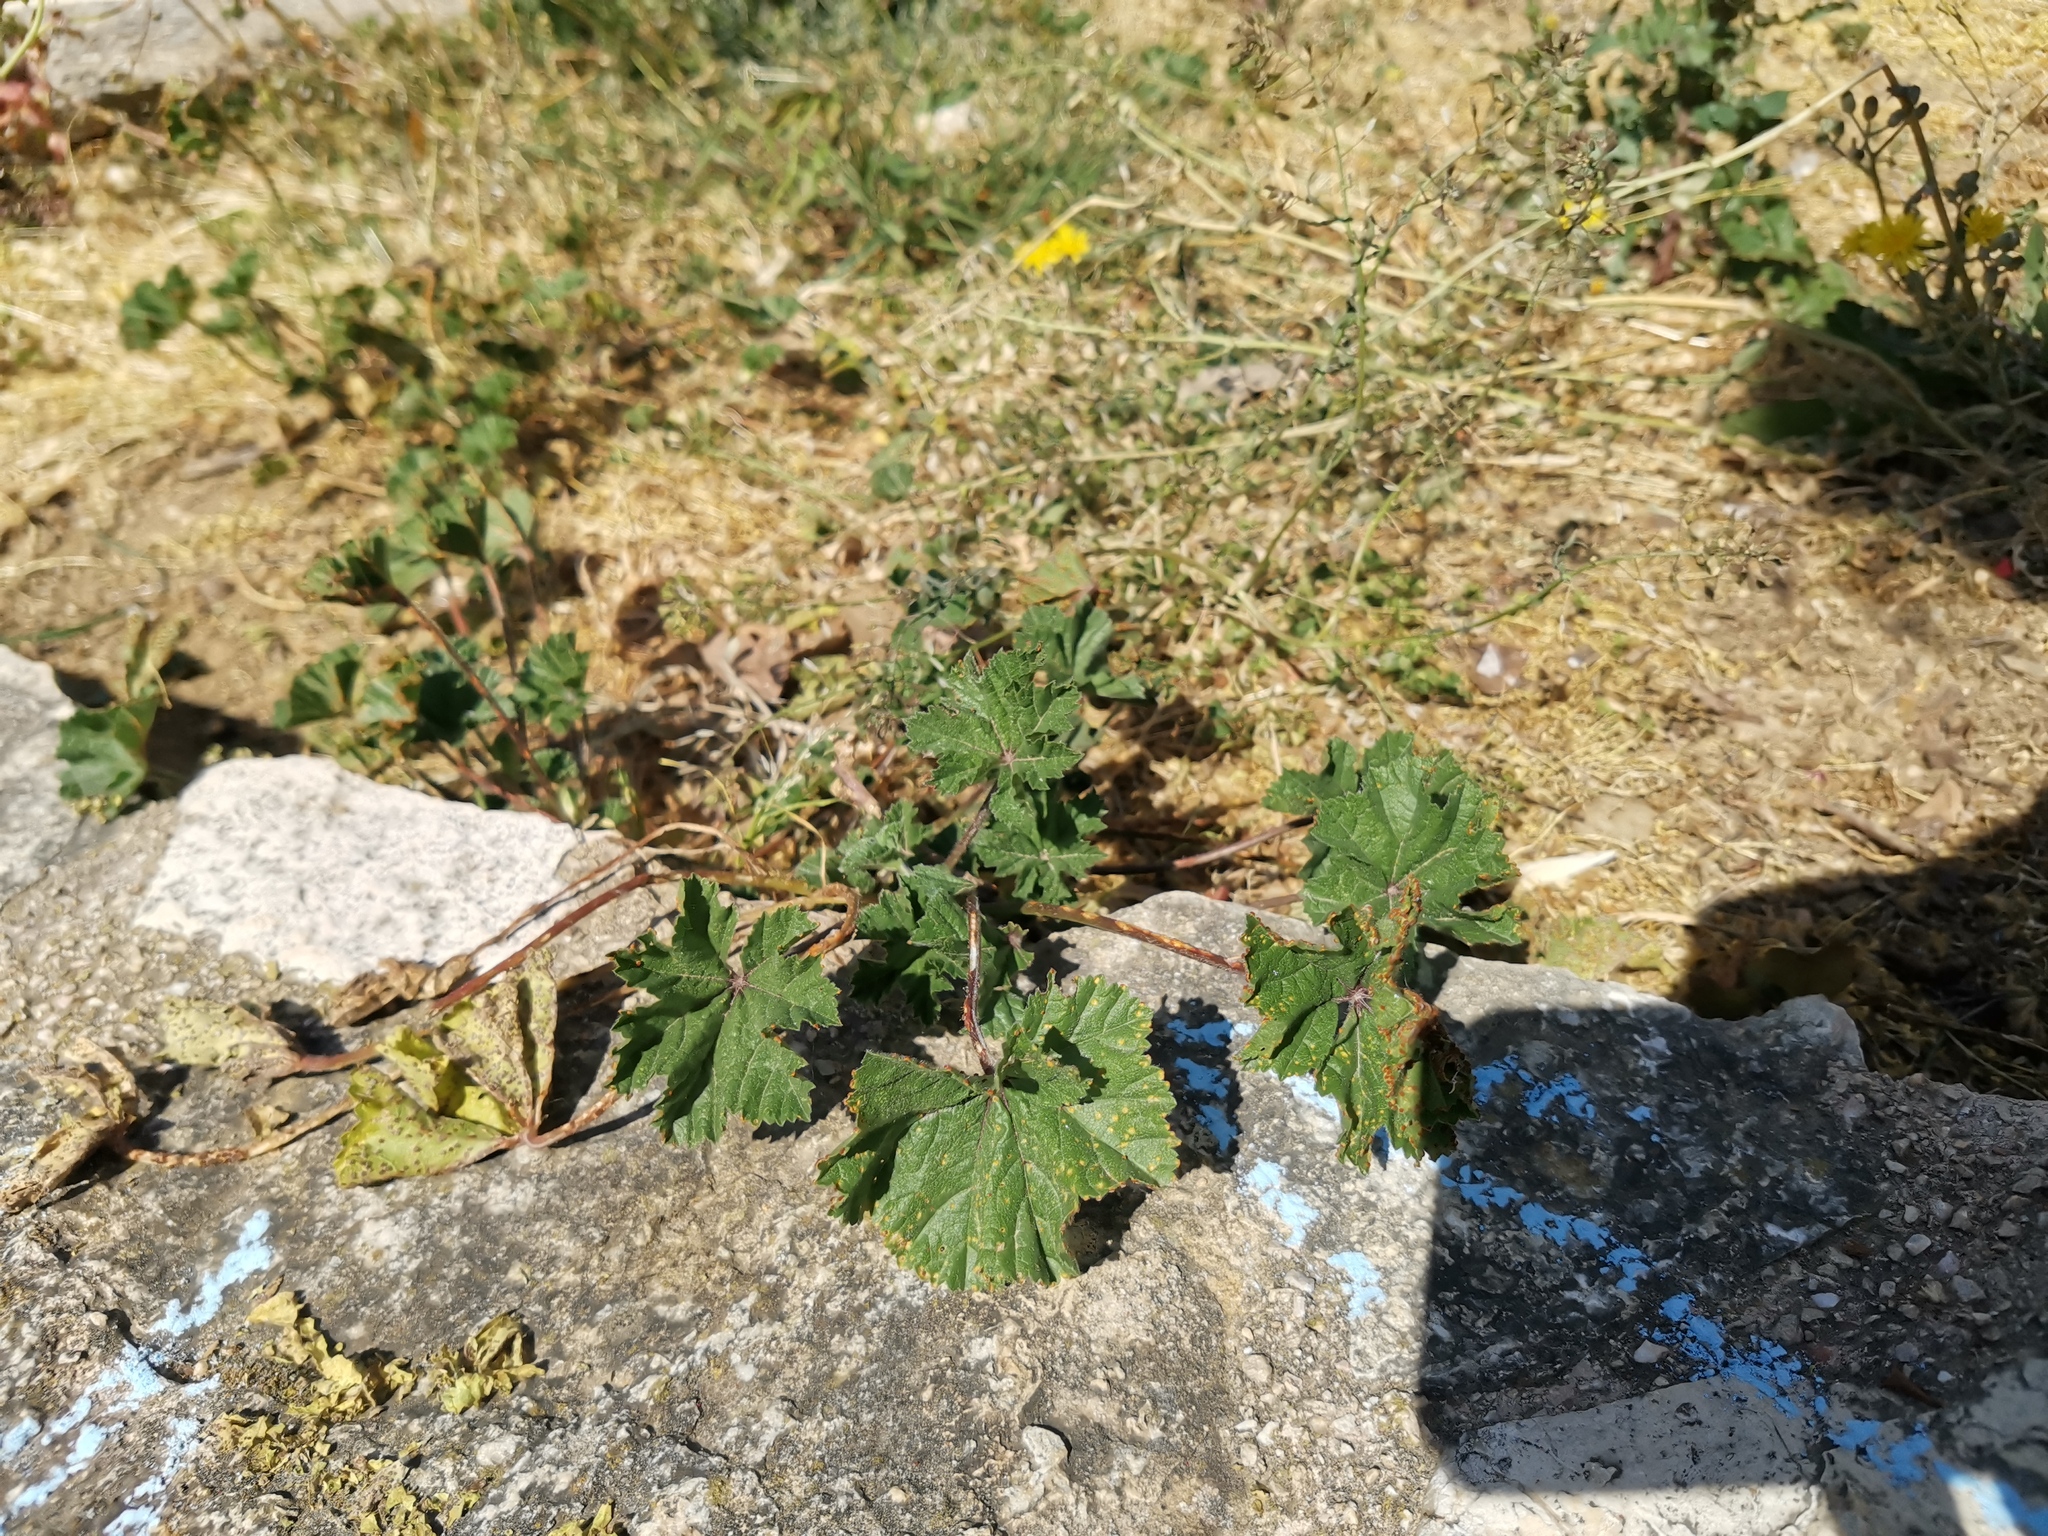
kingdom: Plantae
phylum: Tracheophyta
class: Magnoliopsida
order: Malvales
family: Malvaceae
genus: Malva
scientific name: Malva sylvestris
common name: Common mallow
